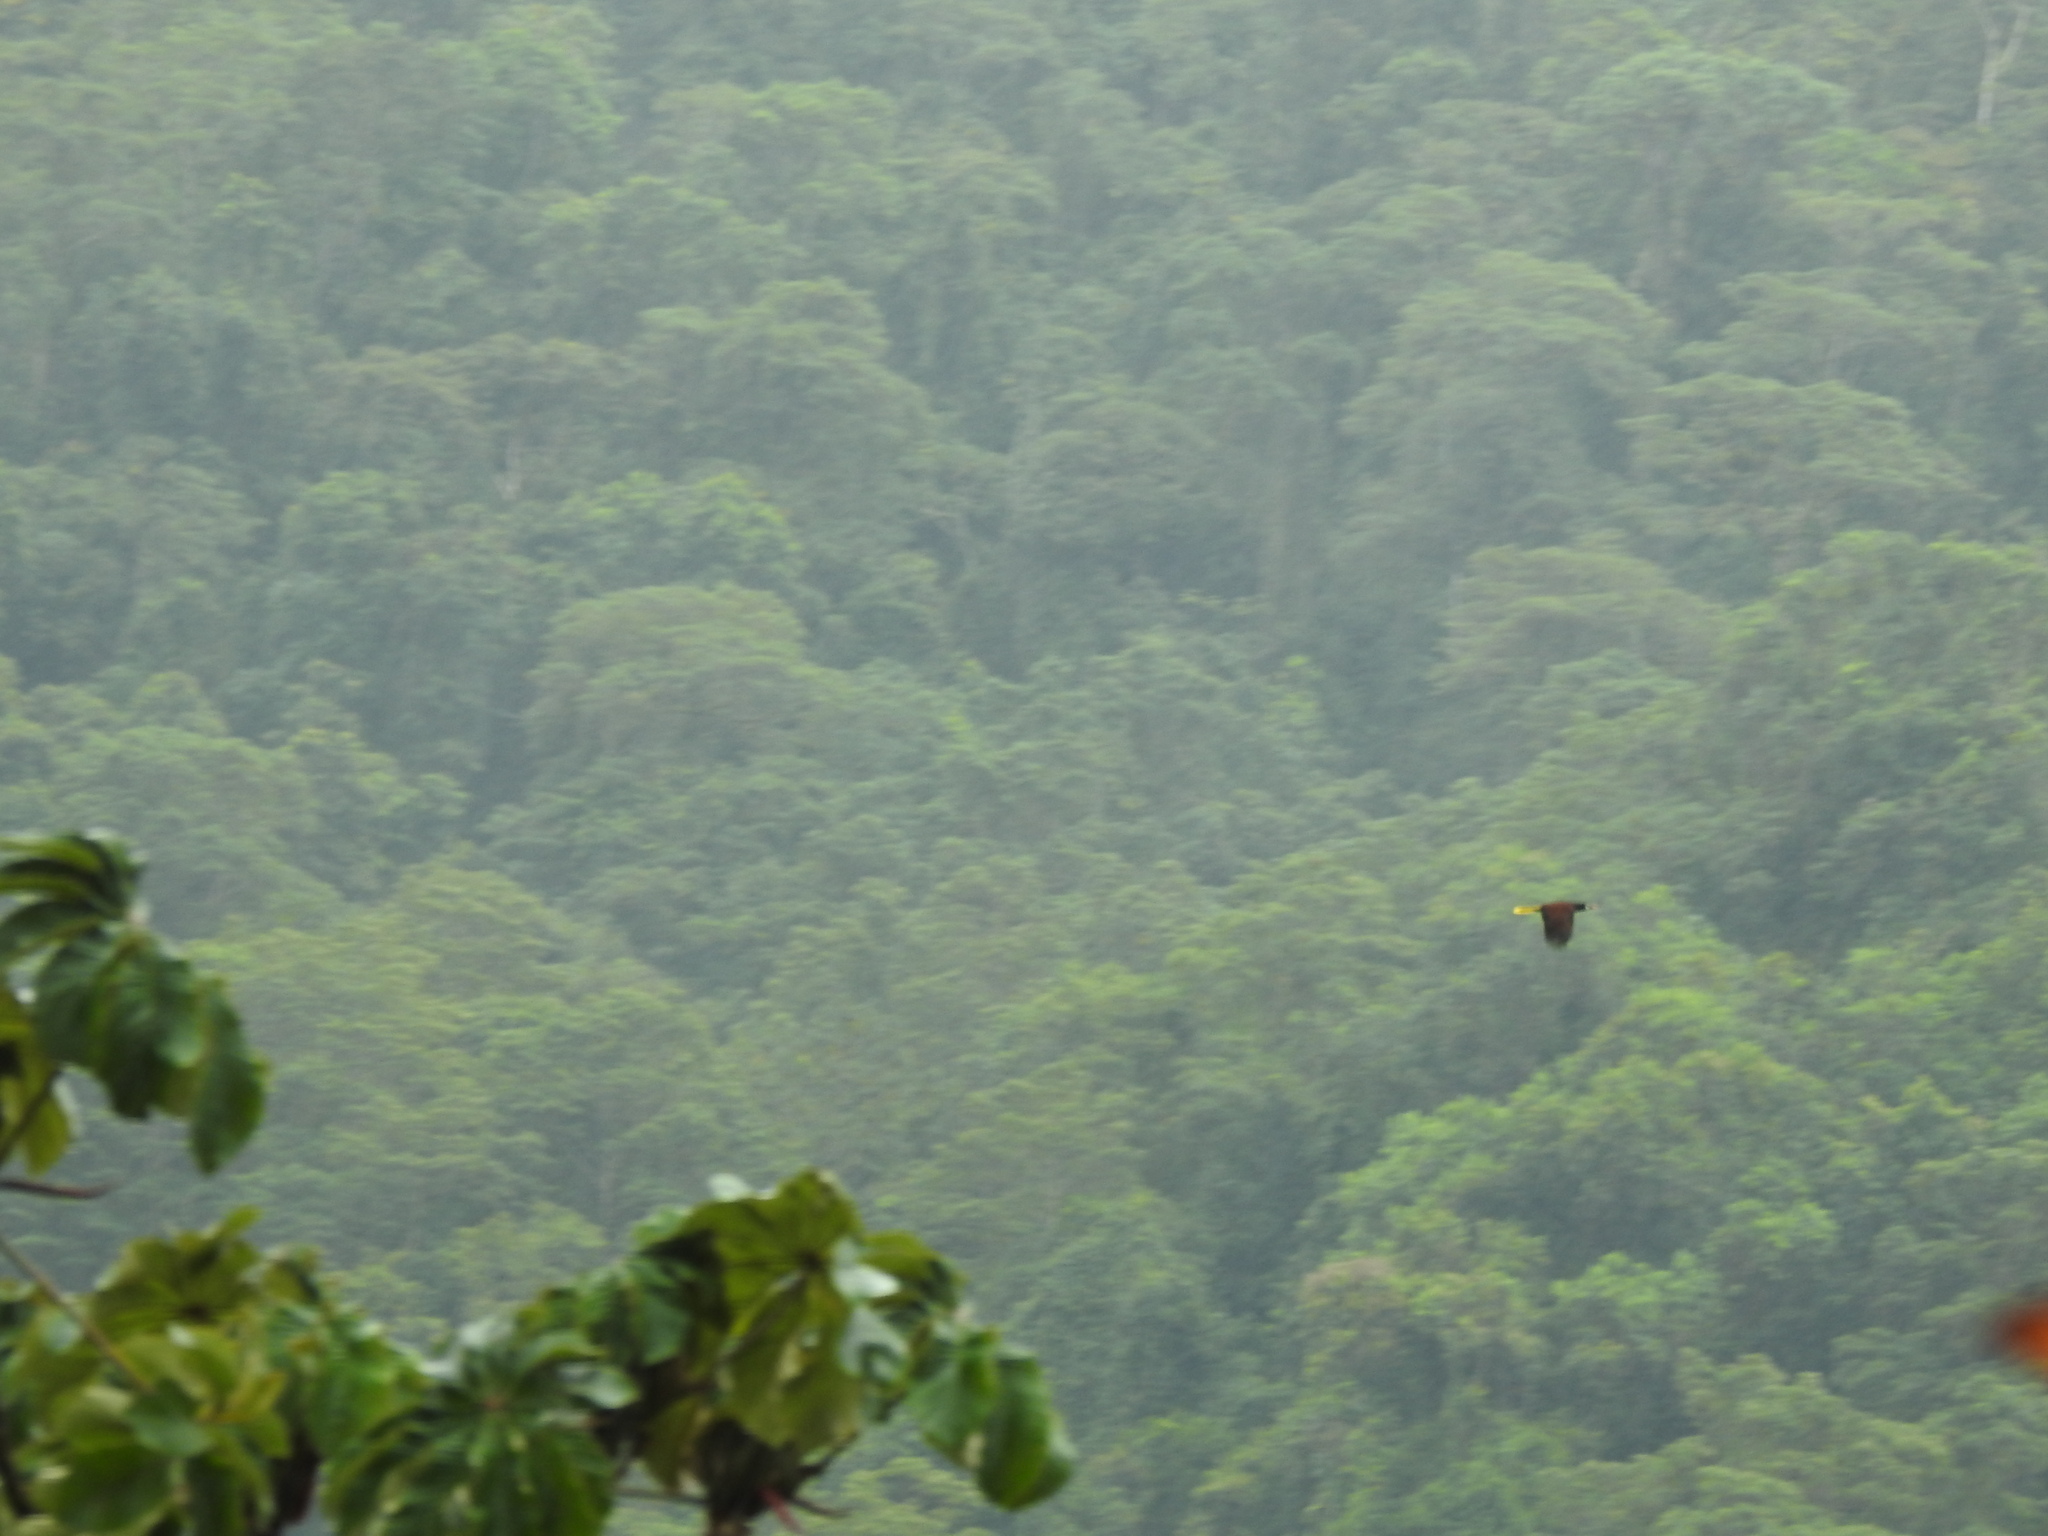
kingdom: Animalia
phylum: Chordata
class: Aves
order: Passeriformes
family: Icteridae
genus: Psarocolius
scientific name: Psarocolius montezuma
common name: Montezuma oropendola
